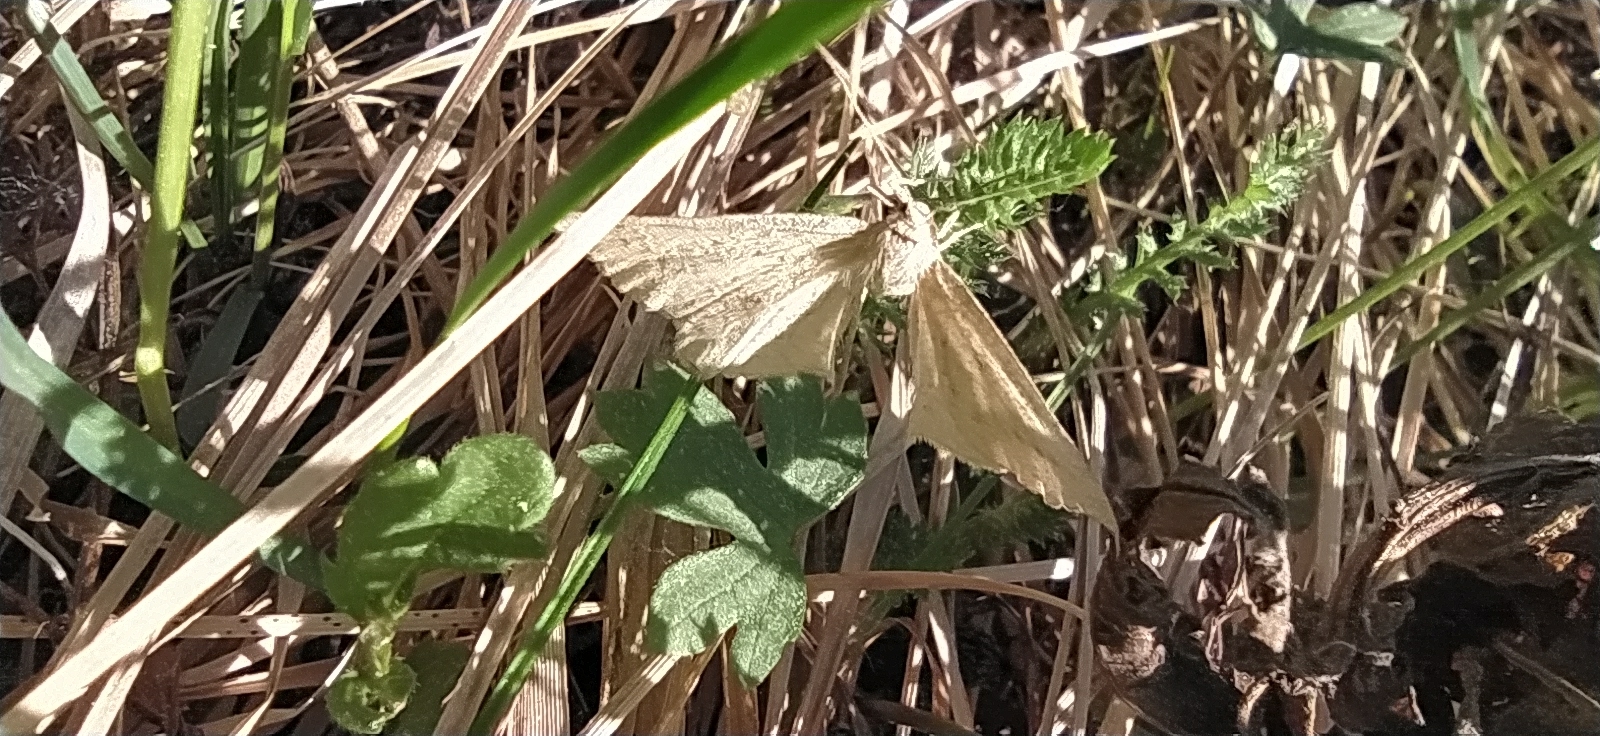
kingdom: Animalia
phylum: Arthropoda
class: Insecta
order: Lepidoptera
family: Geometridae
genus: Hypoxystis
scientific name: Hypoxystis pluviaria
